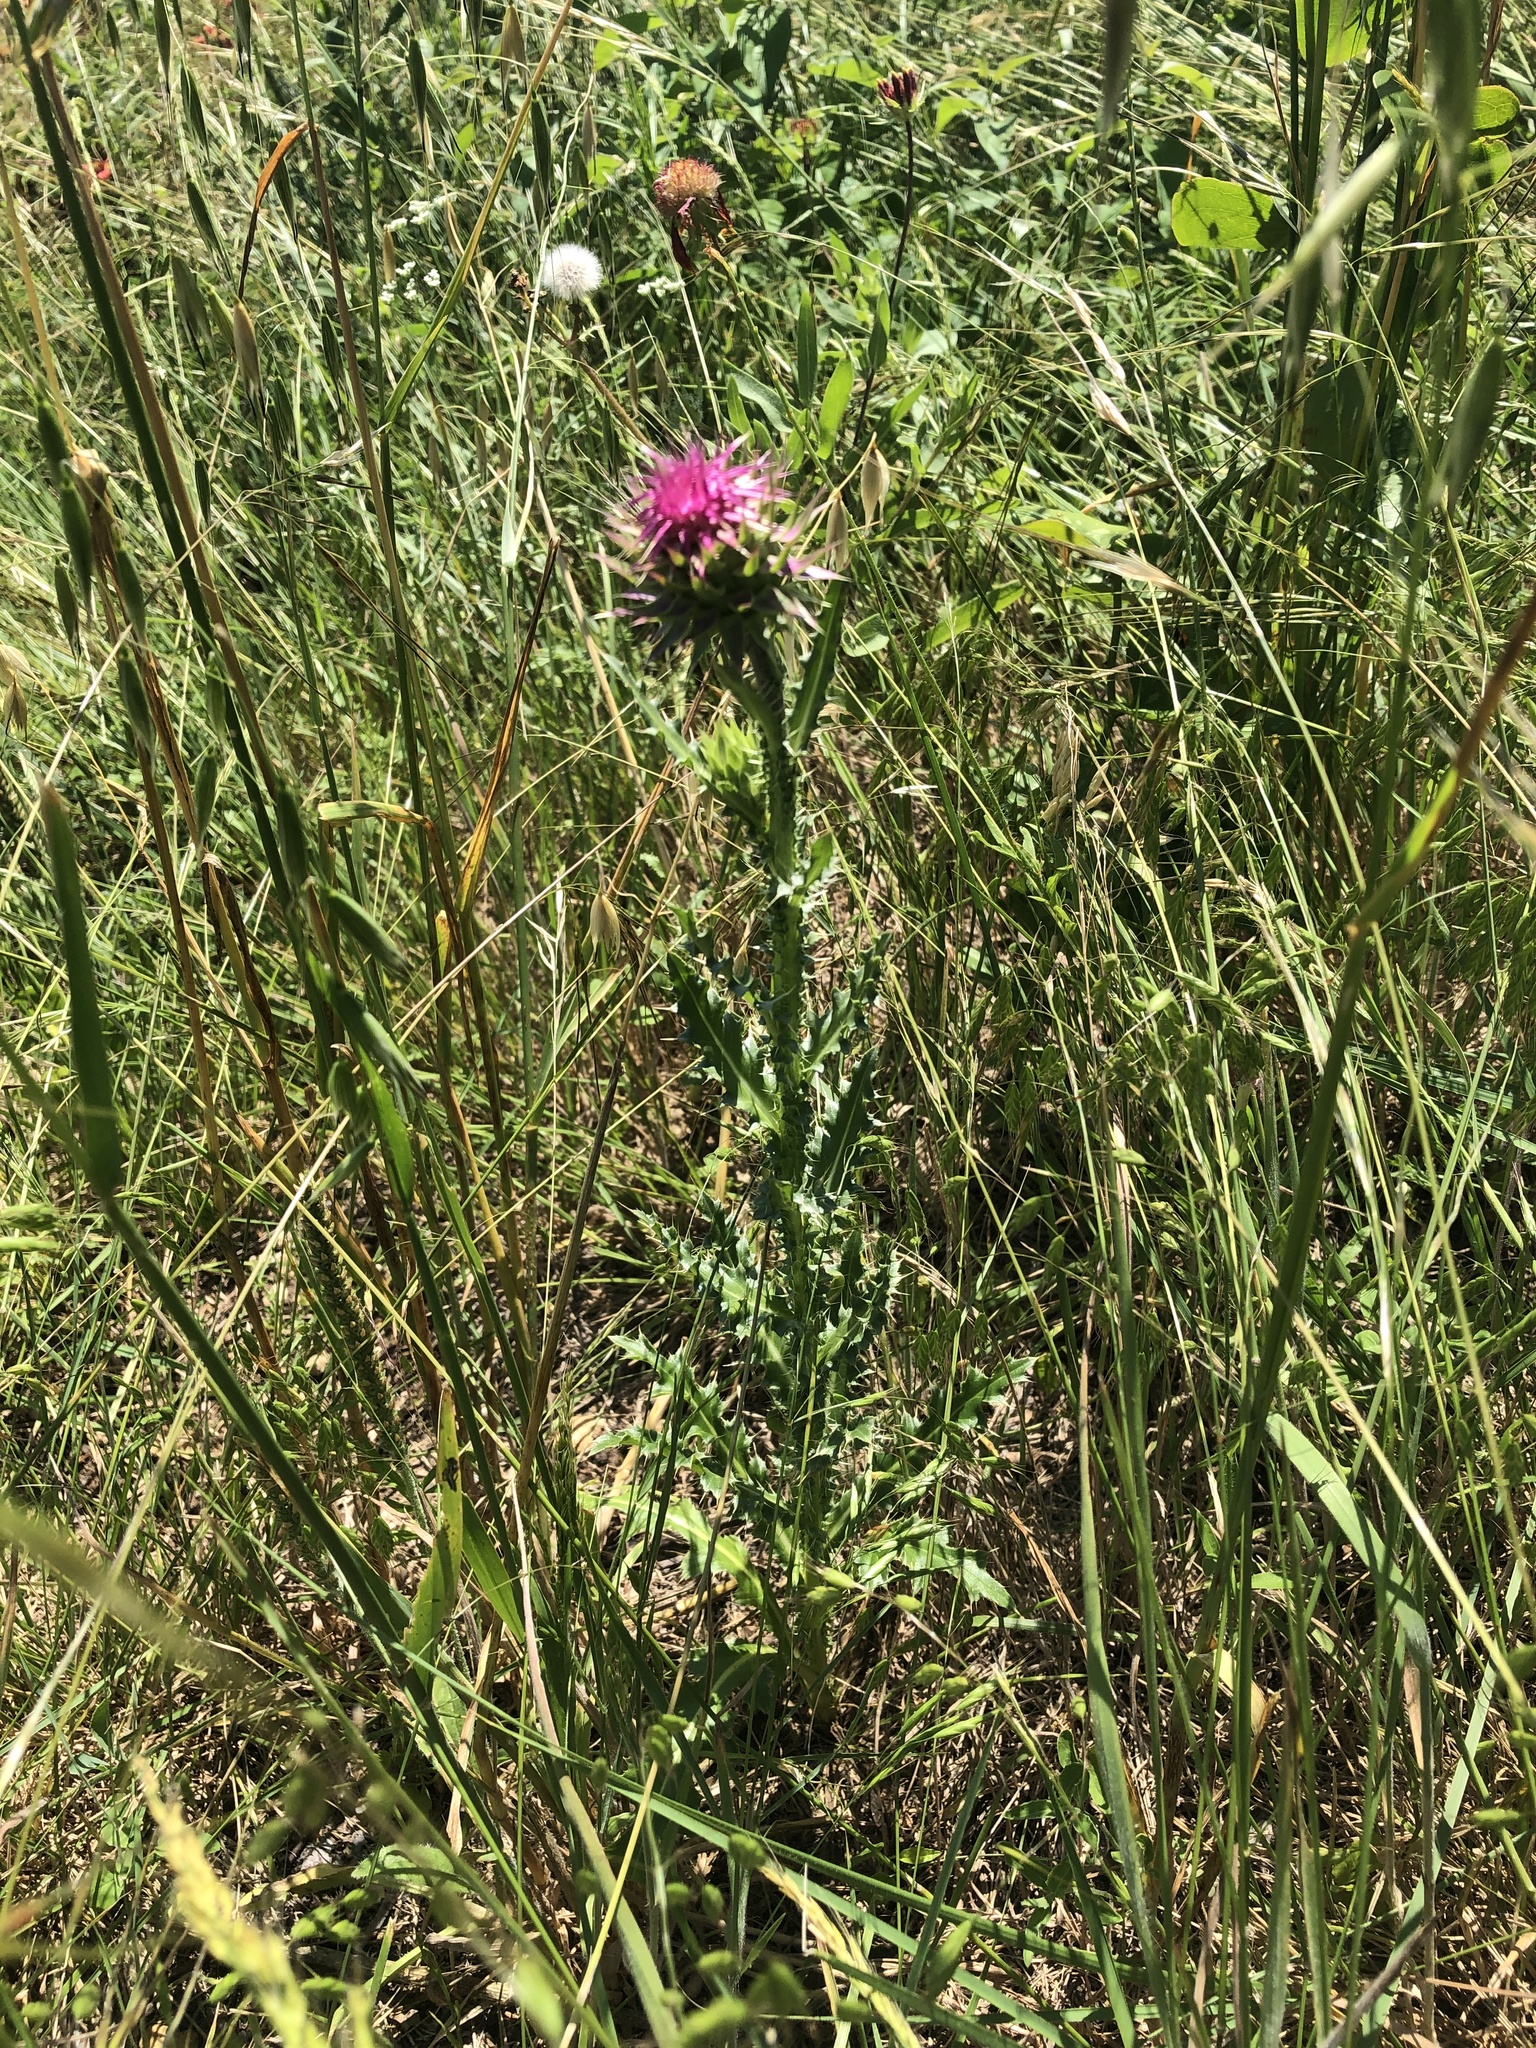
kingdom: Plantae
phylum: Tracheophyta
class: Magnoliopsida
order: Asterales
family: Asteraceae
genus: Carduus
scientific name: Carduus nutans
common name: Musk thistle
